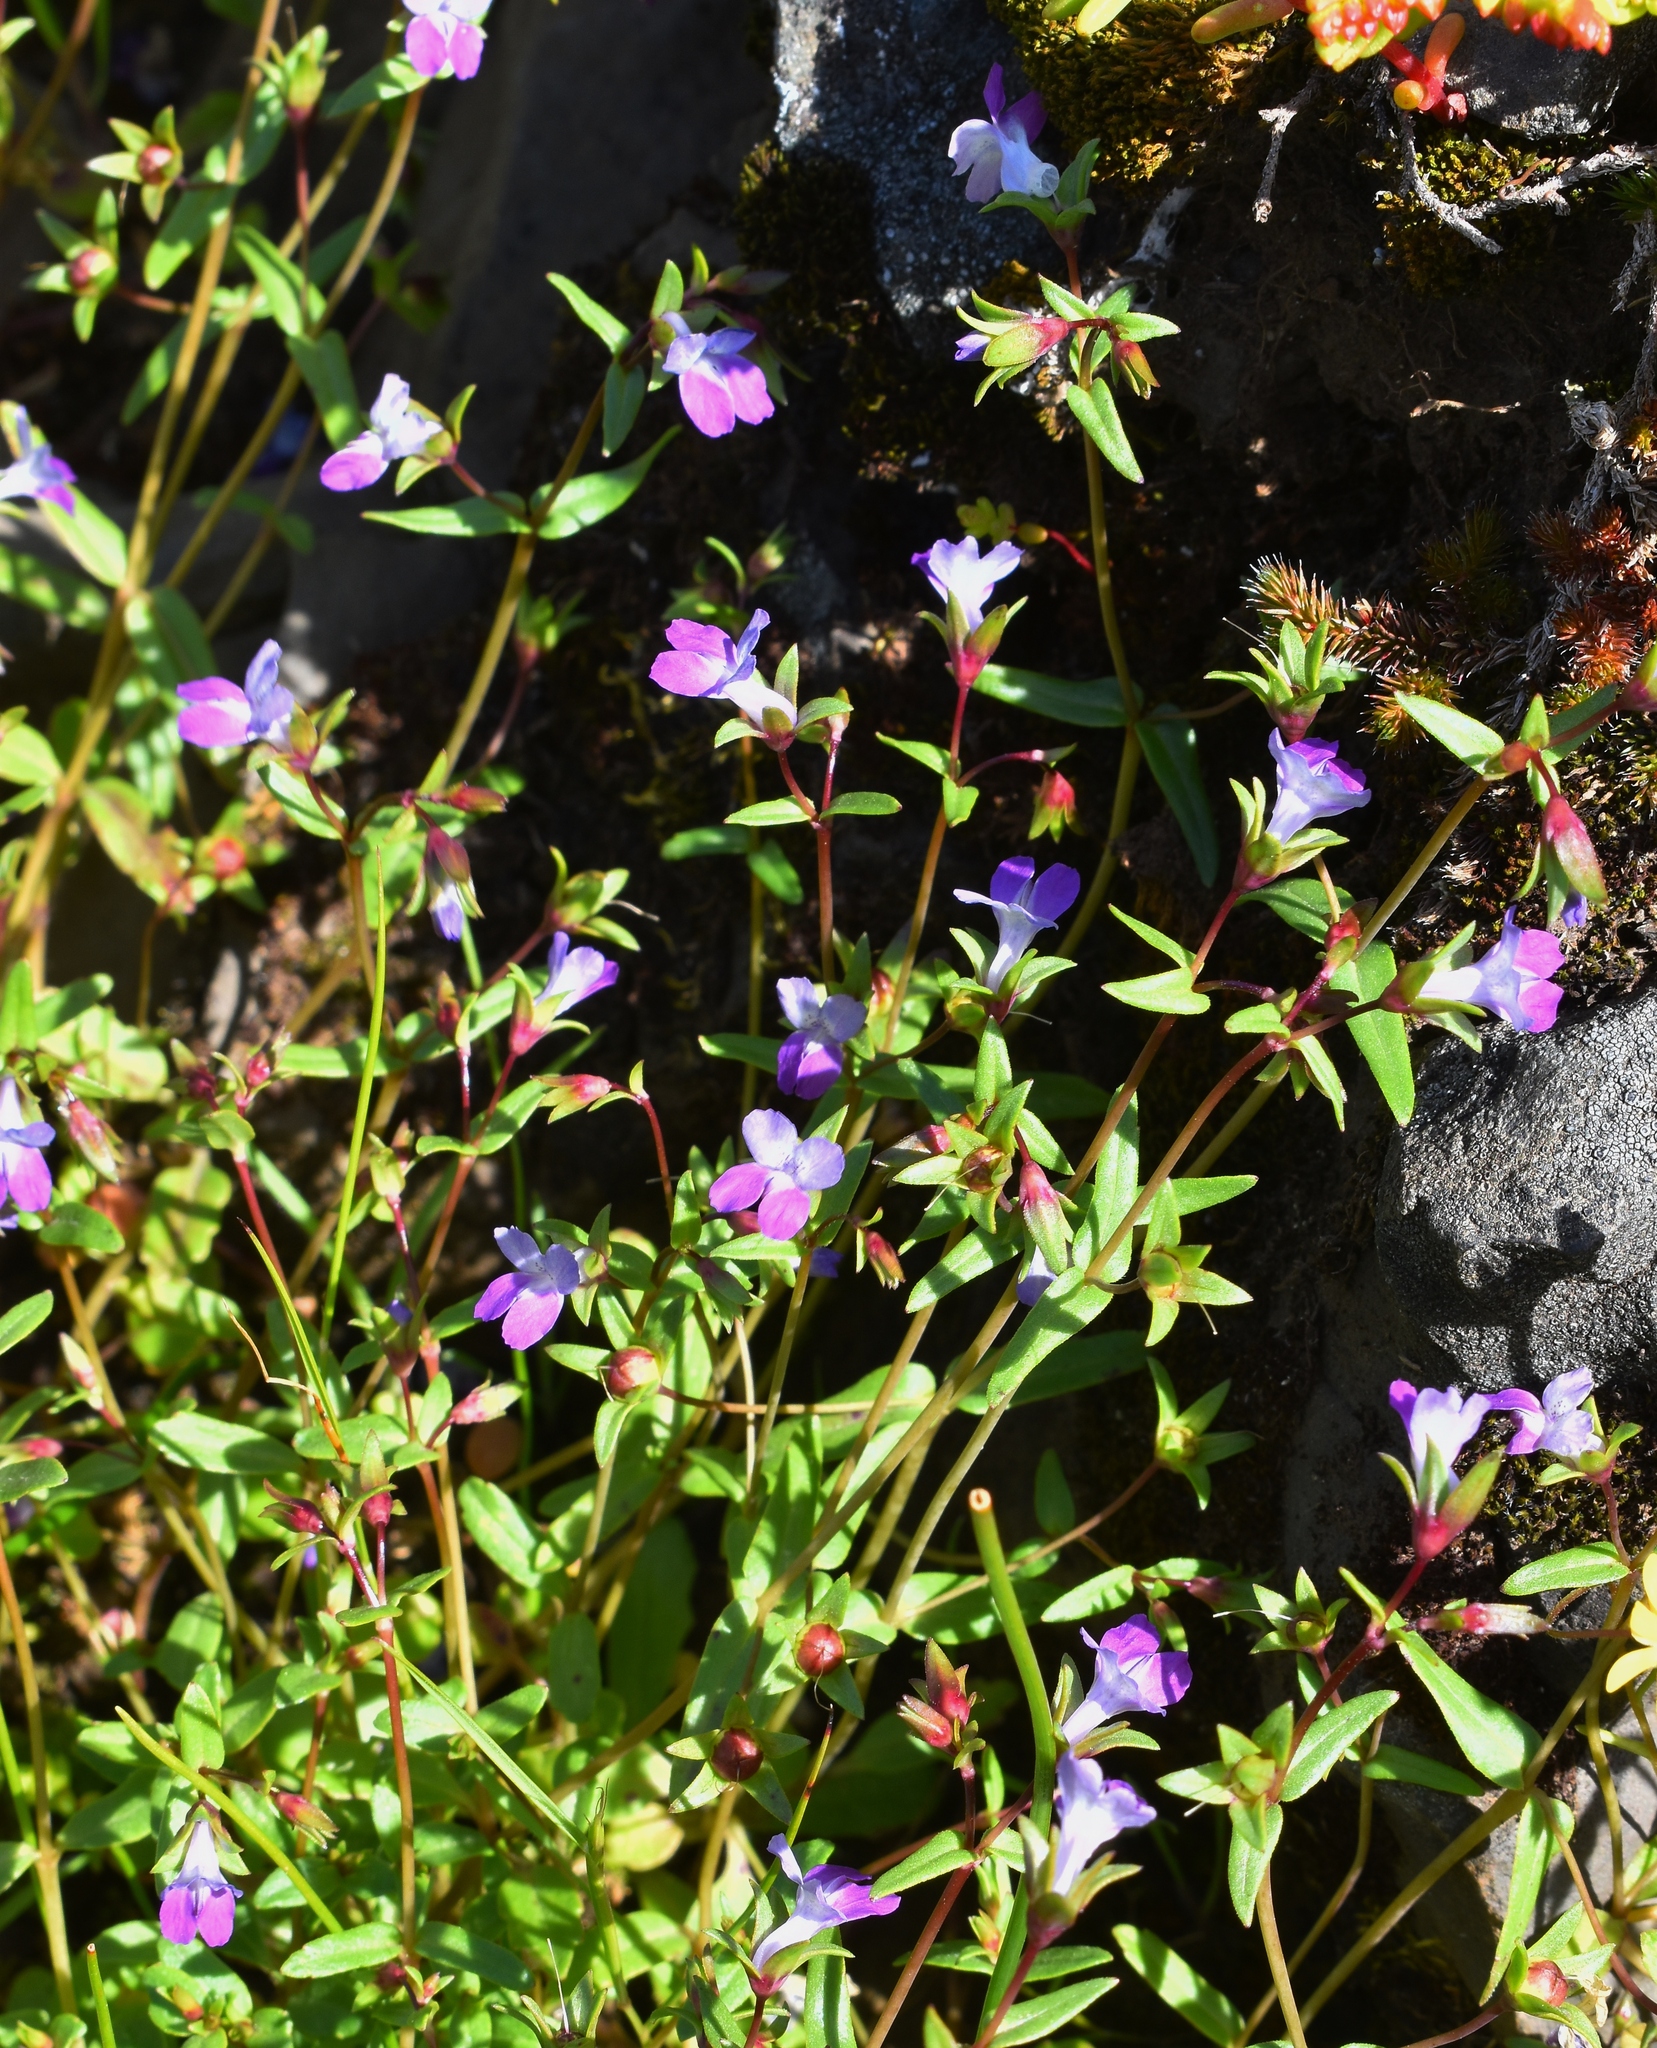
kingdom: Plantae
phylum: Tracheophyta
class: Magnoliopsida
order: Lamiales
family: Plantaginaceae
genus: Collinsia
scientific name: Collinsia sparsiflora
